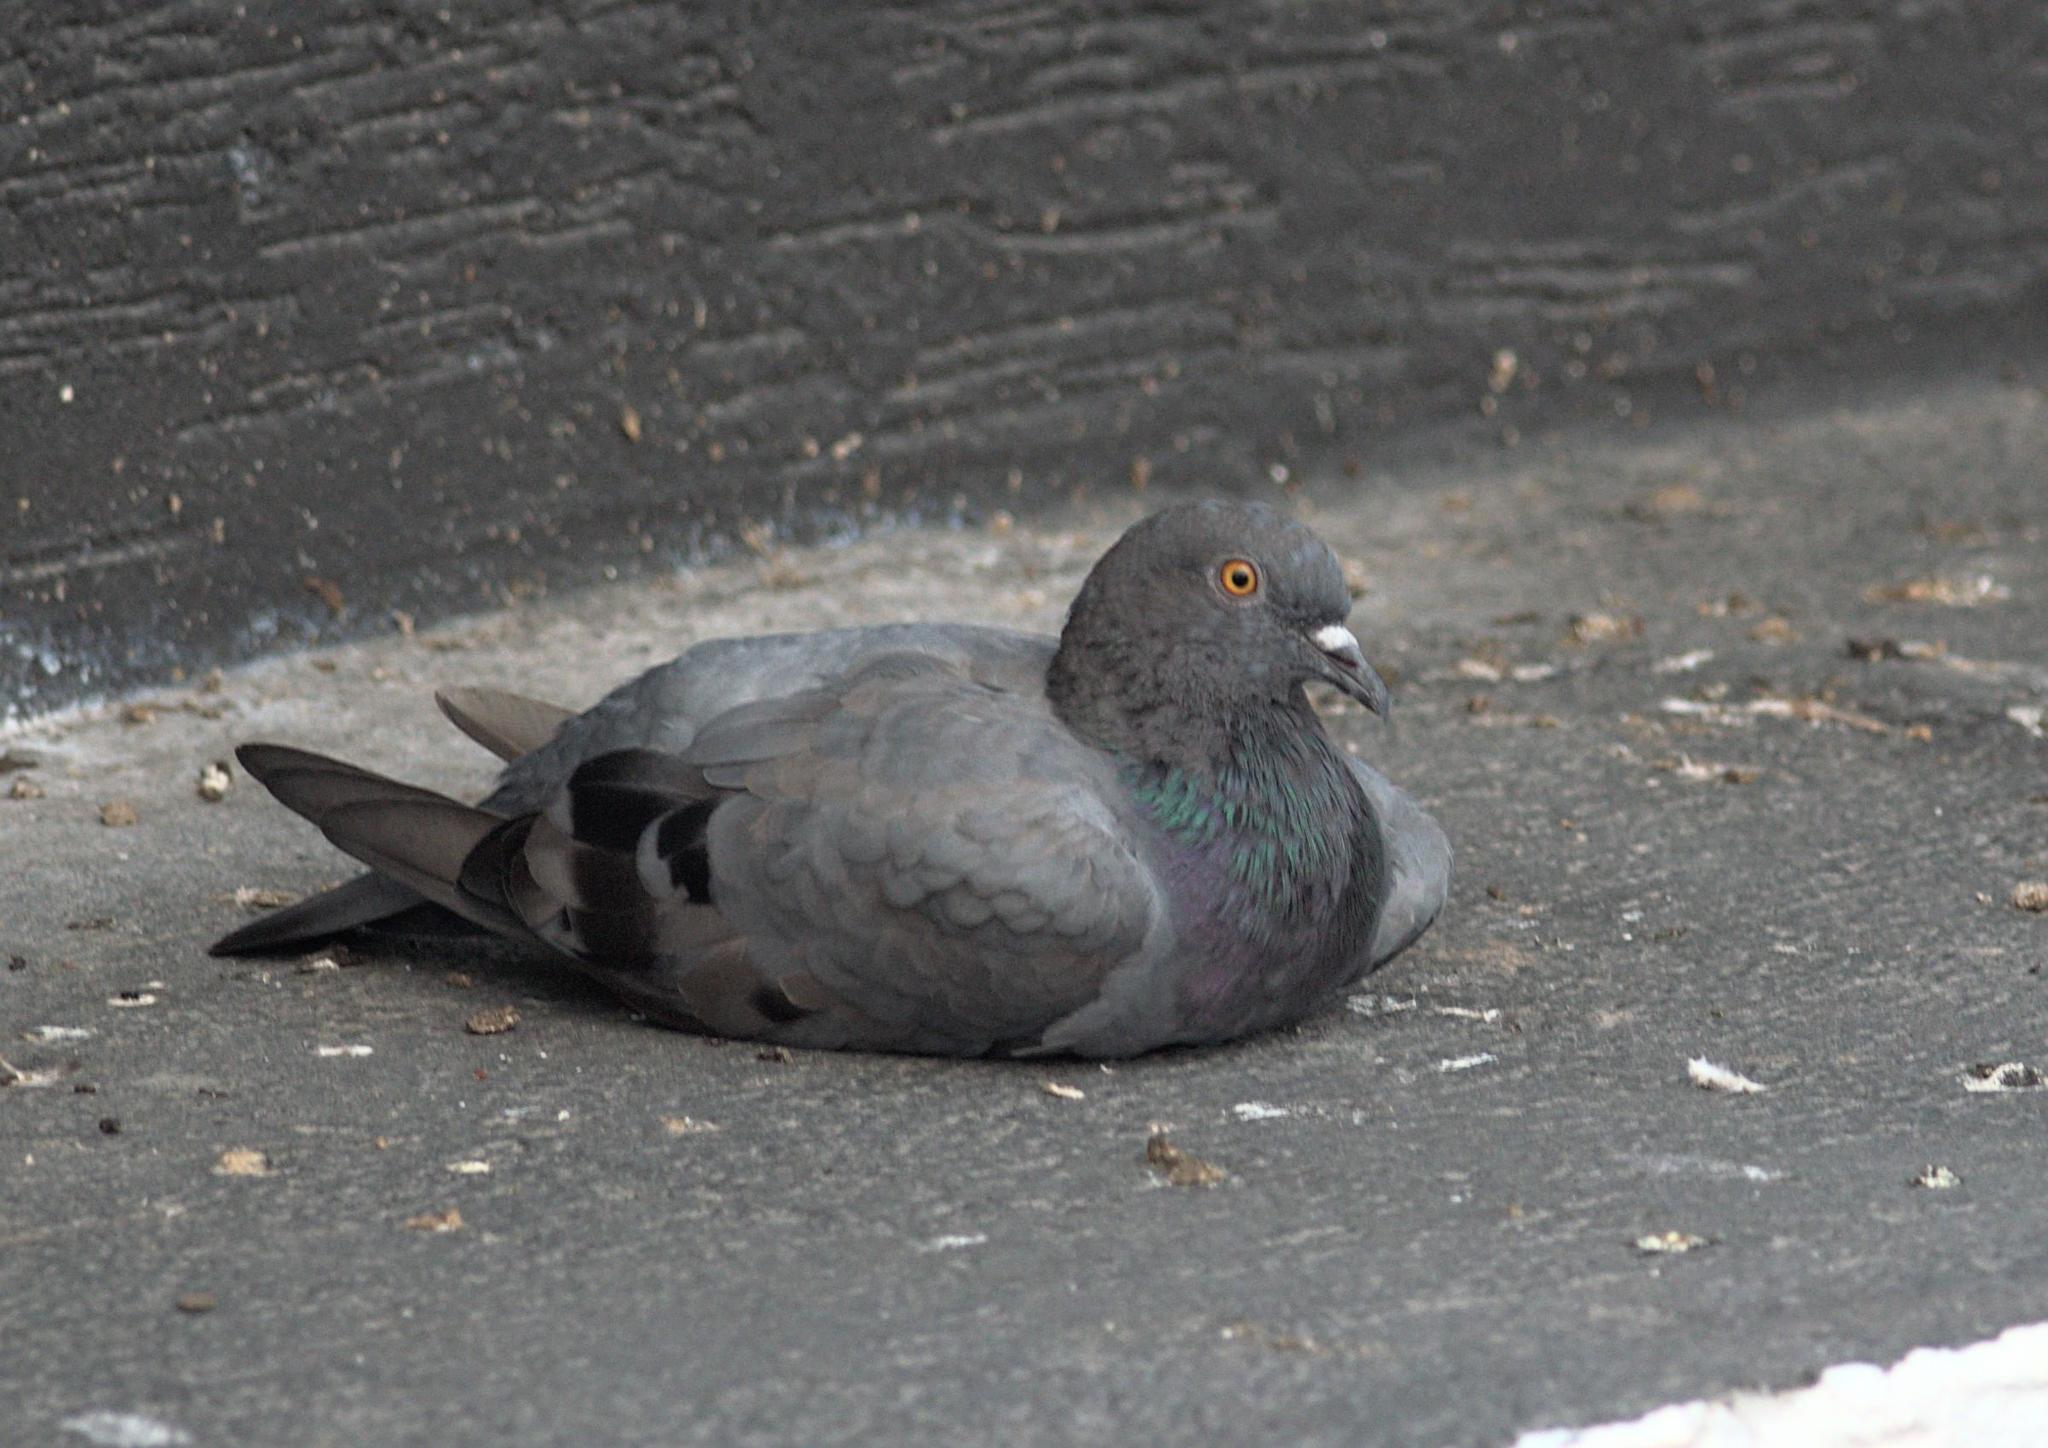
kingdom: Animalia
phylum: Chordata
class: Aves
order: Columbiformes
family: Columbidae
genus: Columba
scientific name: Columba livia
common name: Rock pigeon
